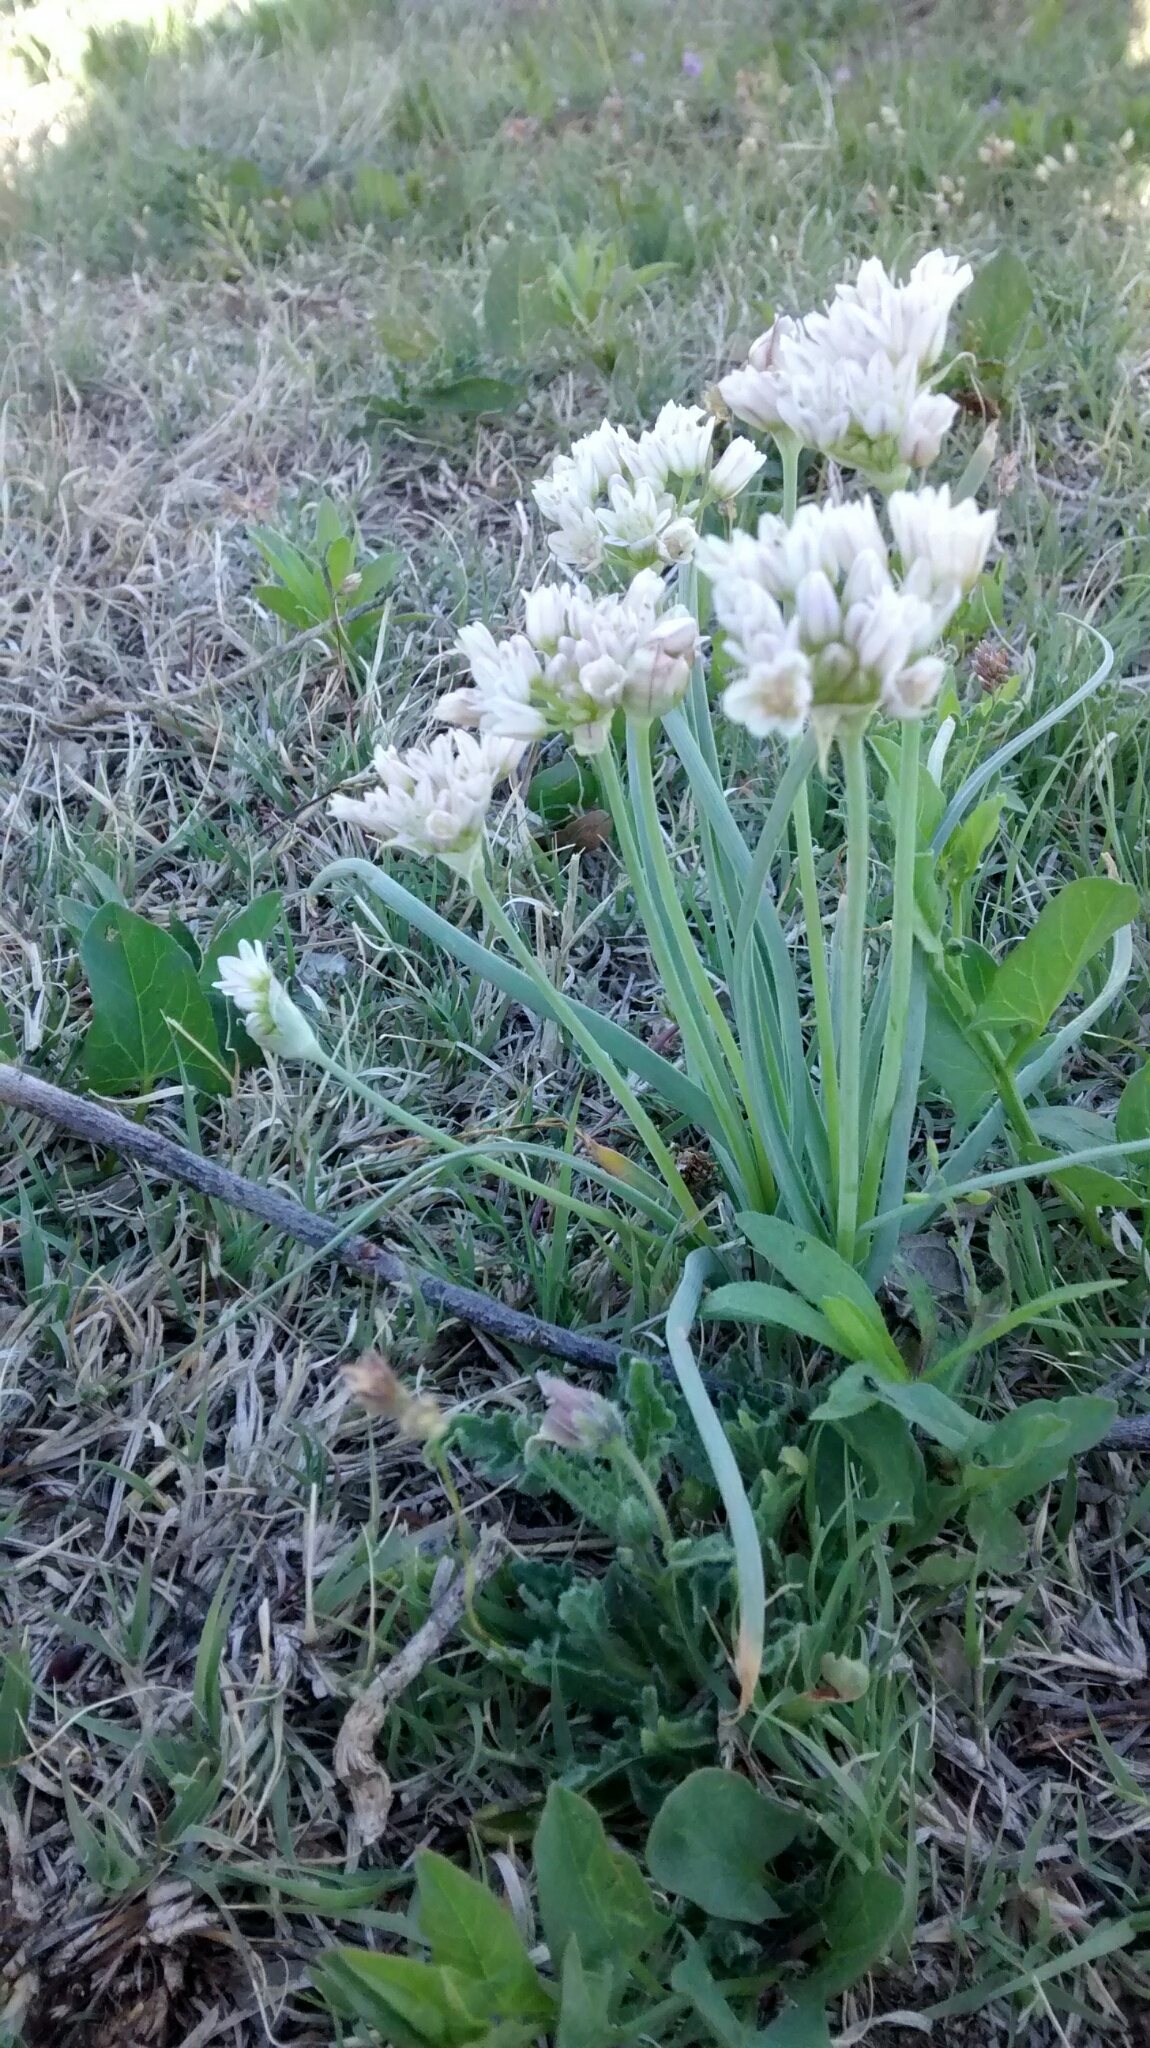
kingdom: Plantae
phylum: Tracheophyta
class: Liliopsida
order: Asparagales
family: Amaryllidaceae
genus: Allium
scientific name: Allium drummondii
